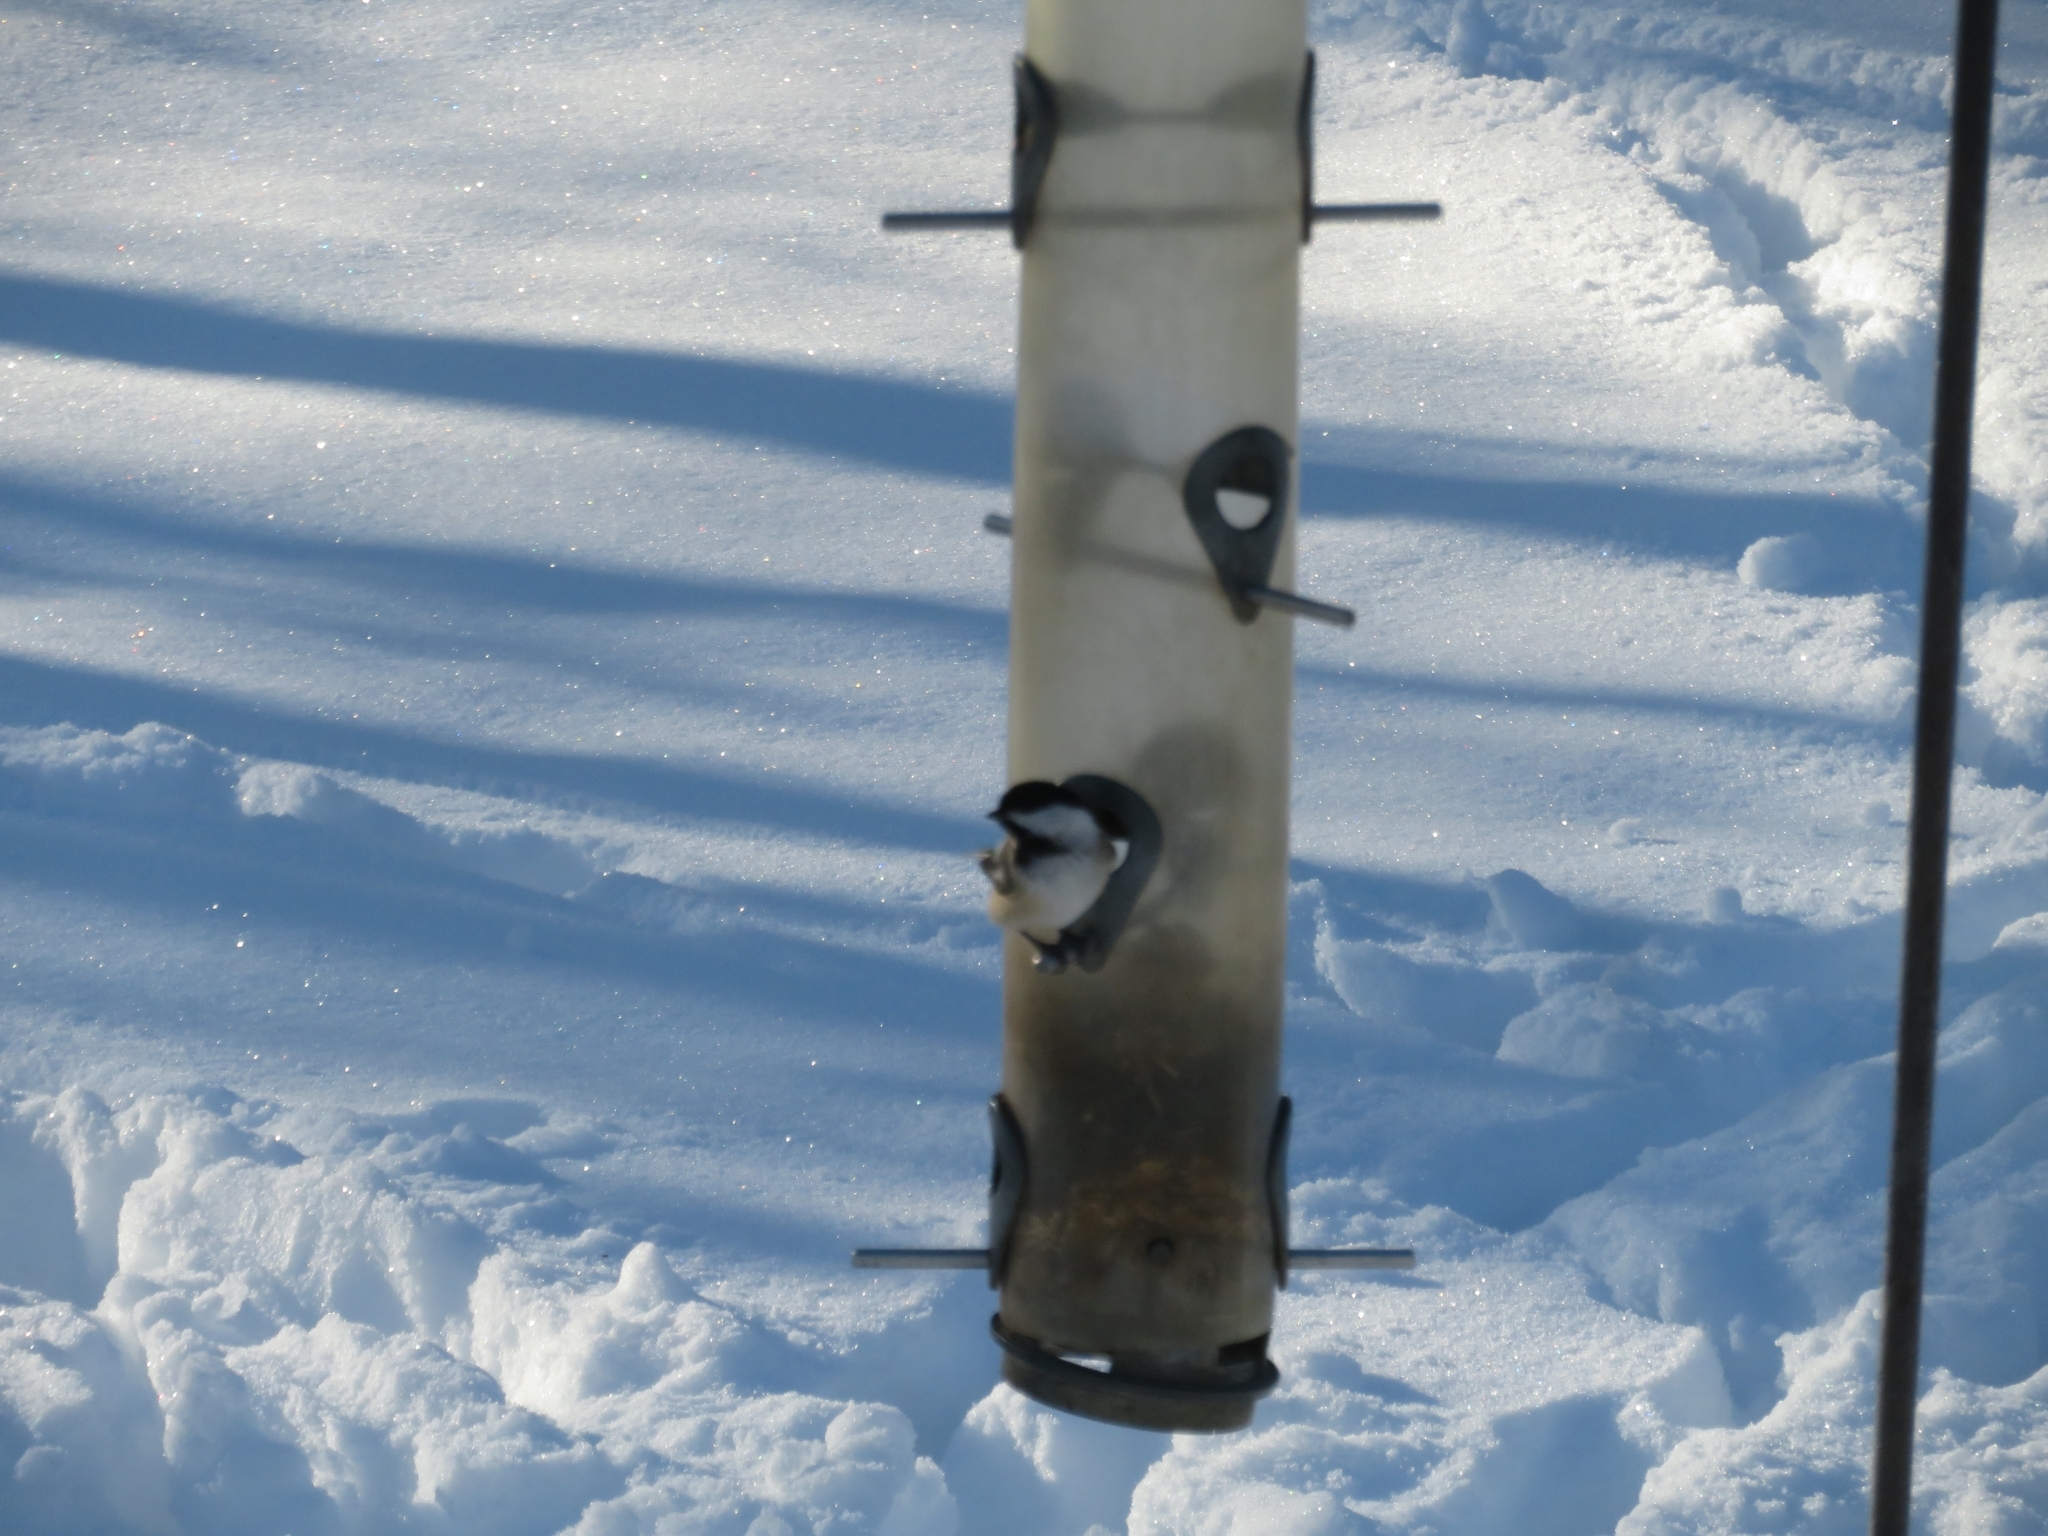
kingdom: Animalia
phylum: Chordata
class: Aves
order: Passeriformes
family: Paridae
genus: Poecile
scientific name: Poecile atricapillus
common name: Black-capped chickadee
